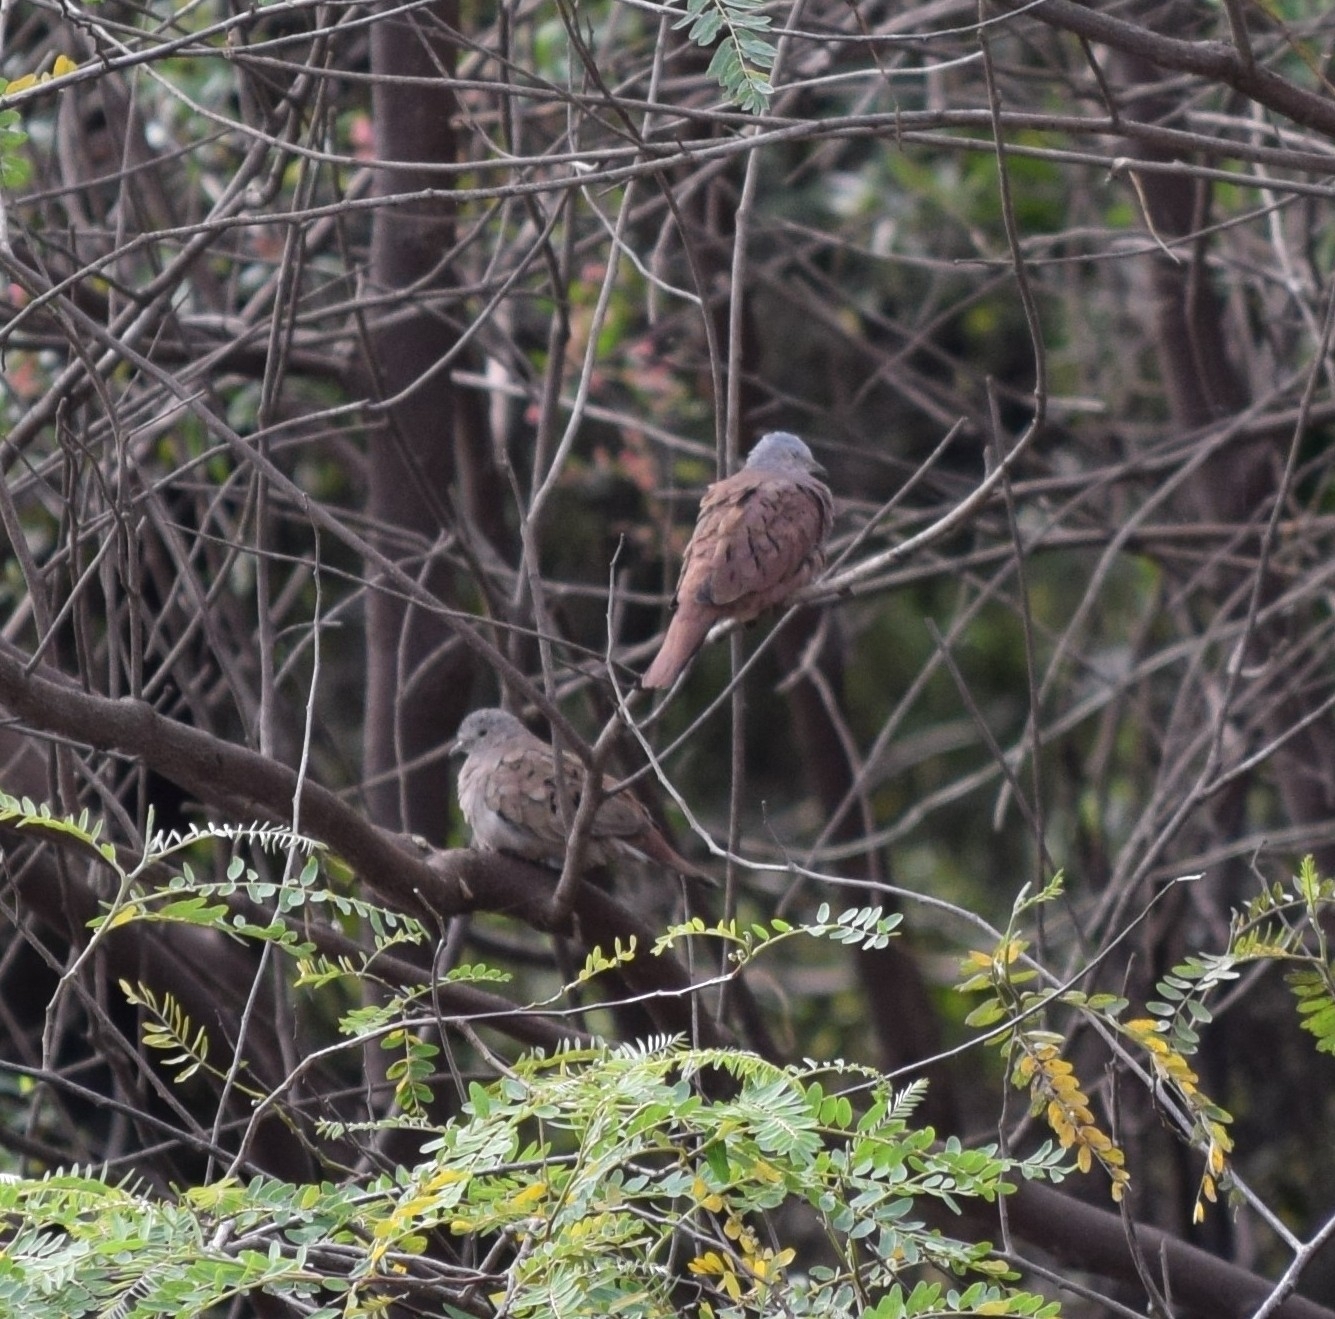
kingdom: Animalia
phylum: Chordata
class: Aves
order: Columbiformes
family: Columbidae
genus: Columbina
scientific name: Columbina talpacoti
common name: Ruddy ground dove
